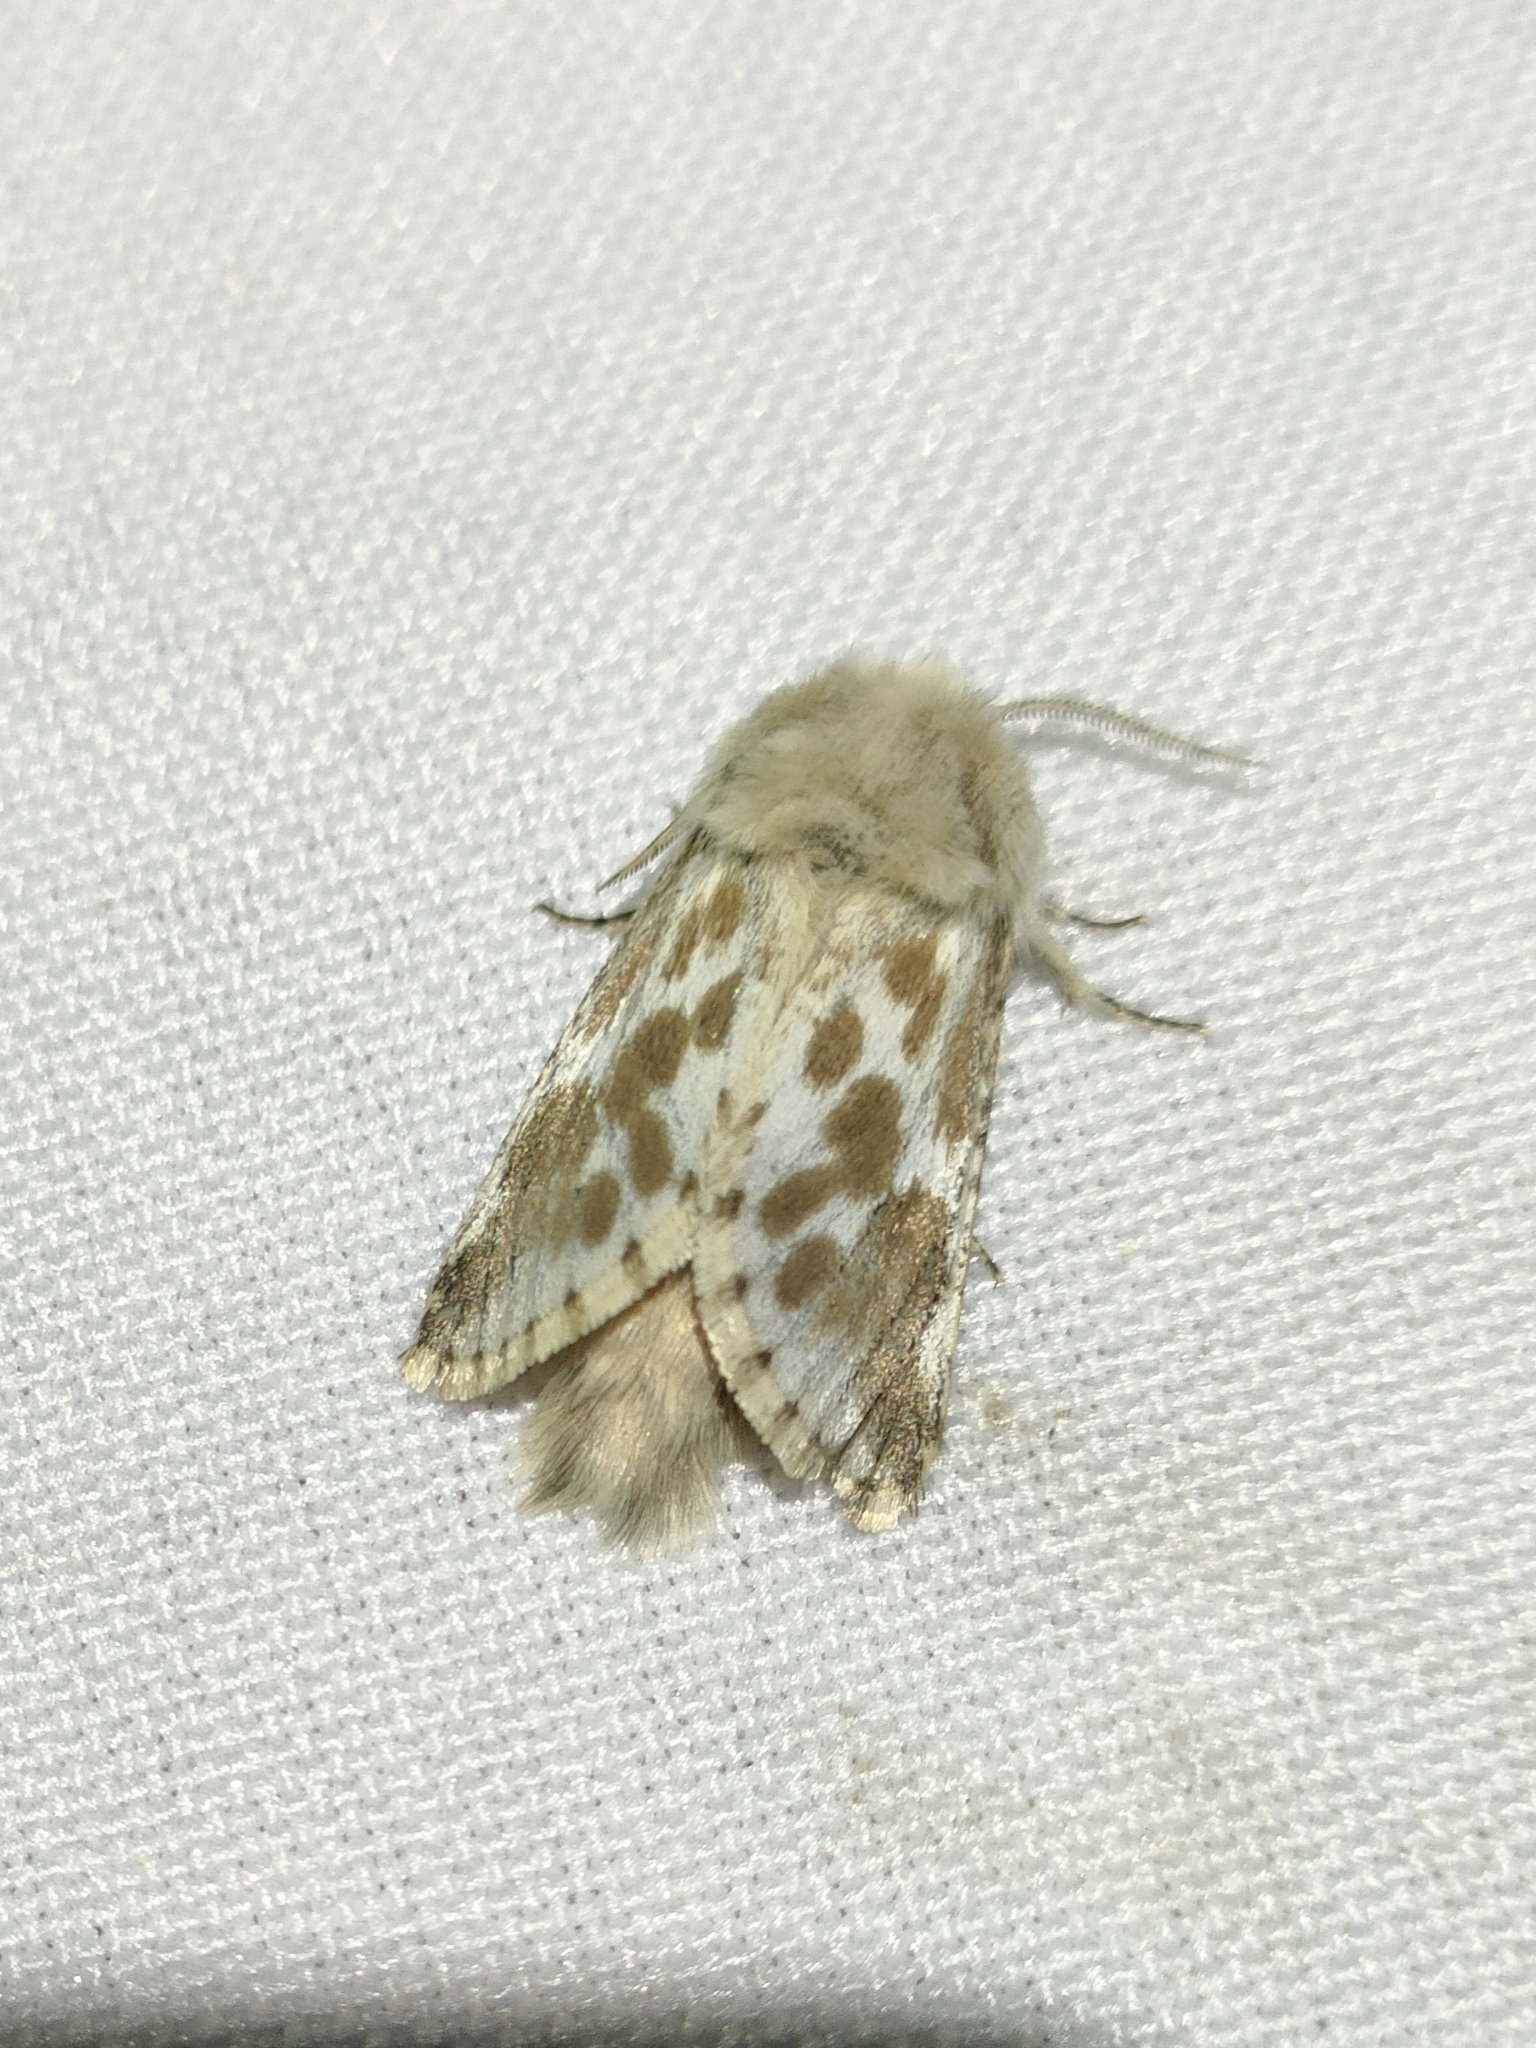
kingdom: Animalia
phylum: Arthropoda
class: Insecta
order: Lepidoptera
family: Cossidae
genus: Dyspessa
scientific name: Dyspessa ulula
